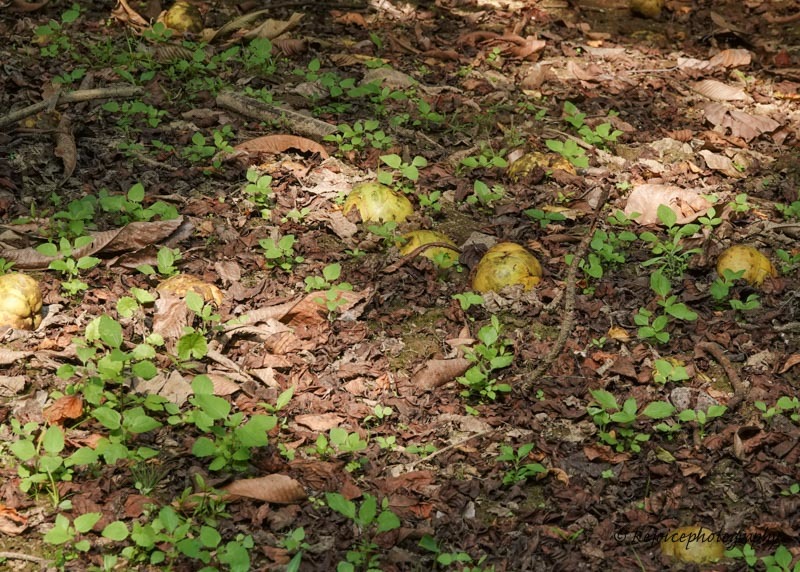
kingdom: Plantae
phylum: Tracheophyta
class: Magnoliopsida
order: Dilleniales
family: Dilleniaceae
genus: Dillenia
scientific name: Dillenia indica
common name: Elephant apple
